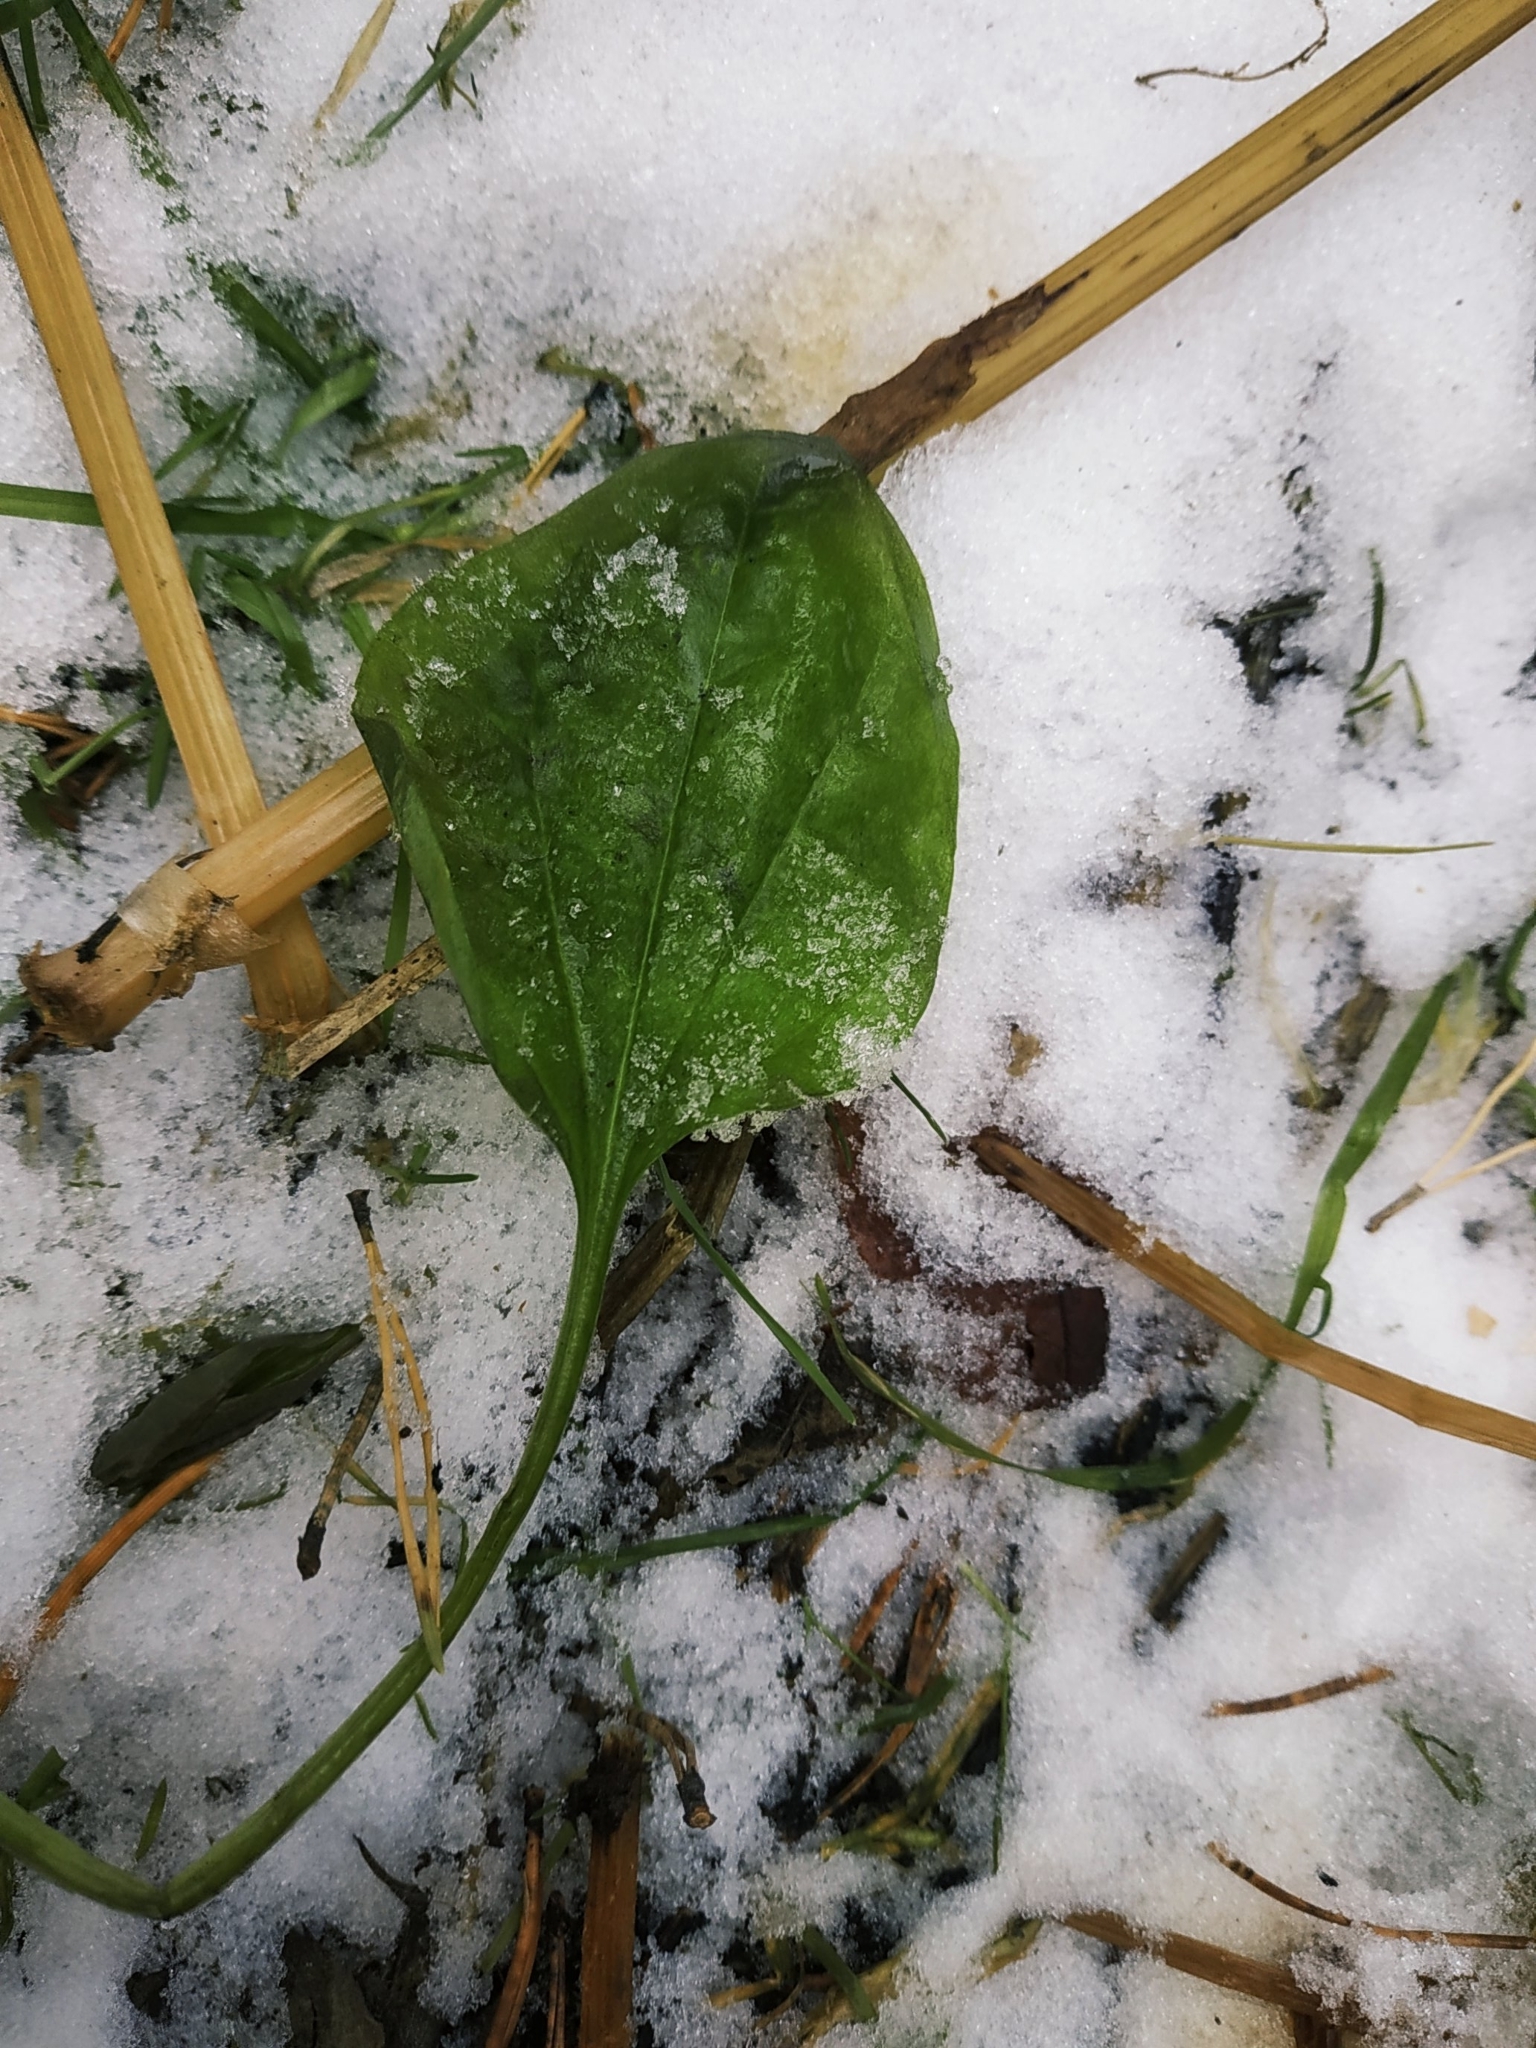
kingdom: Plantae
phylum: Tracheophyta
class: Magnoliopsida
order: Lamiales
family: Plantaginaceae
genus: Plantago
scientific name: Plantago major
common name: Common plantain
